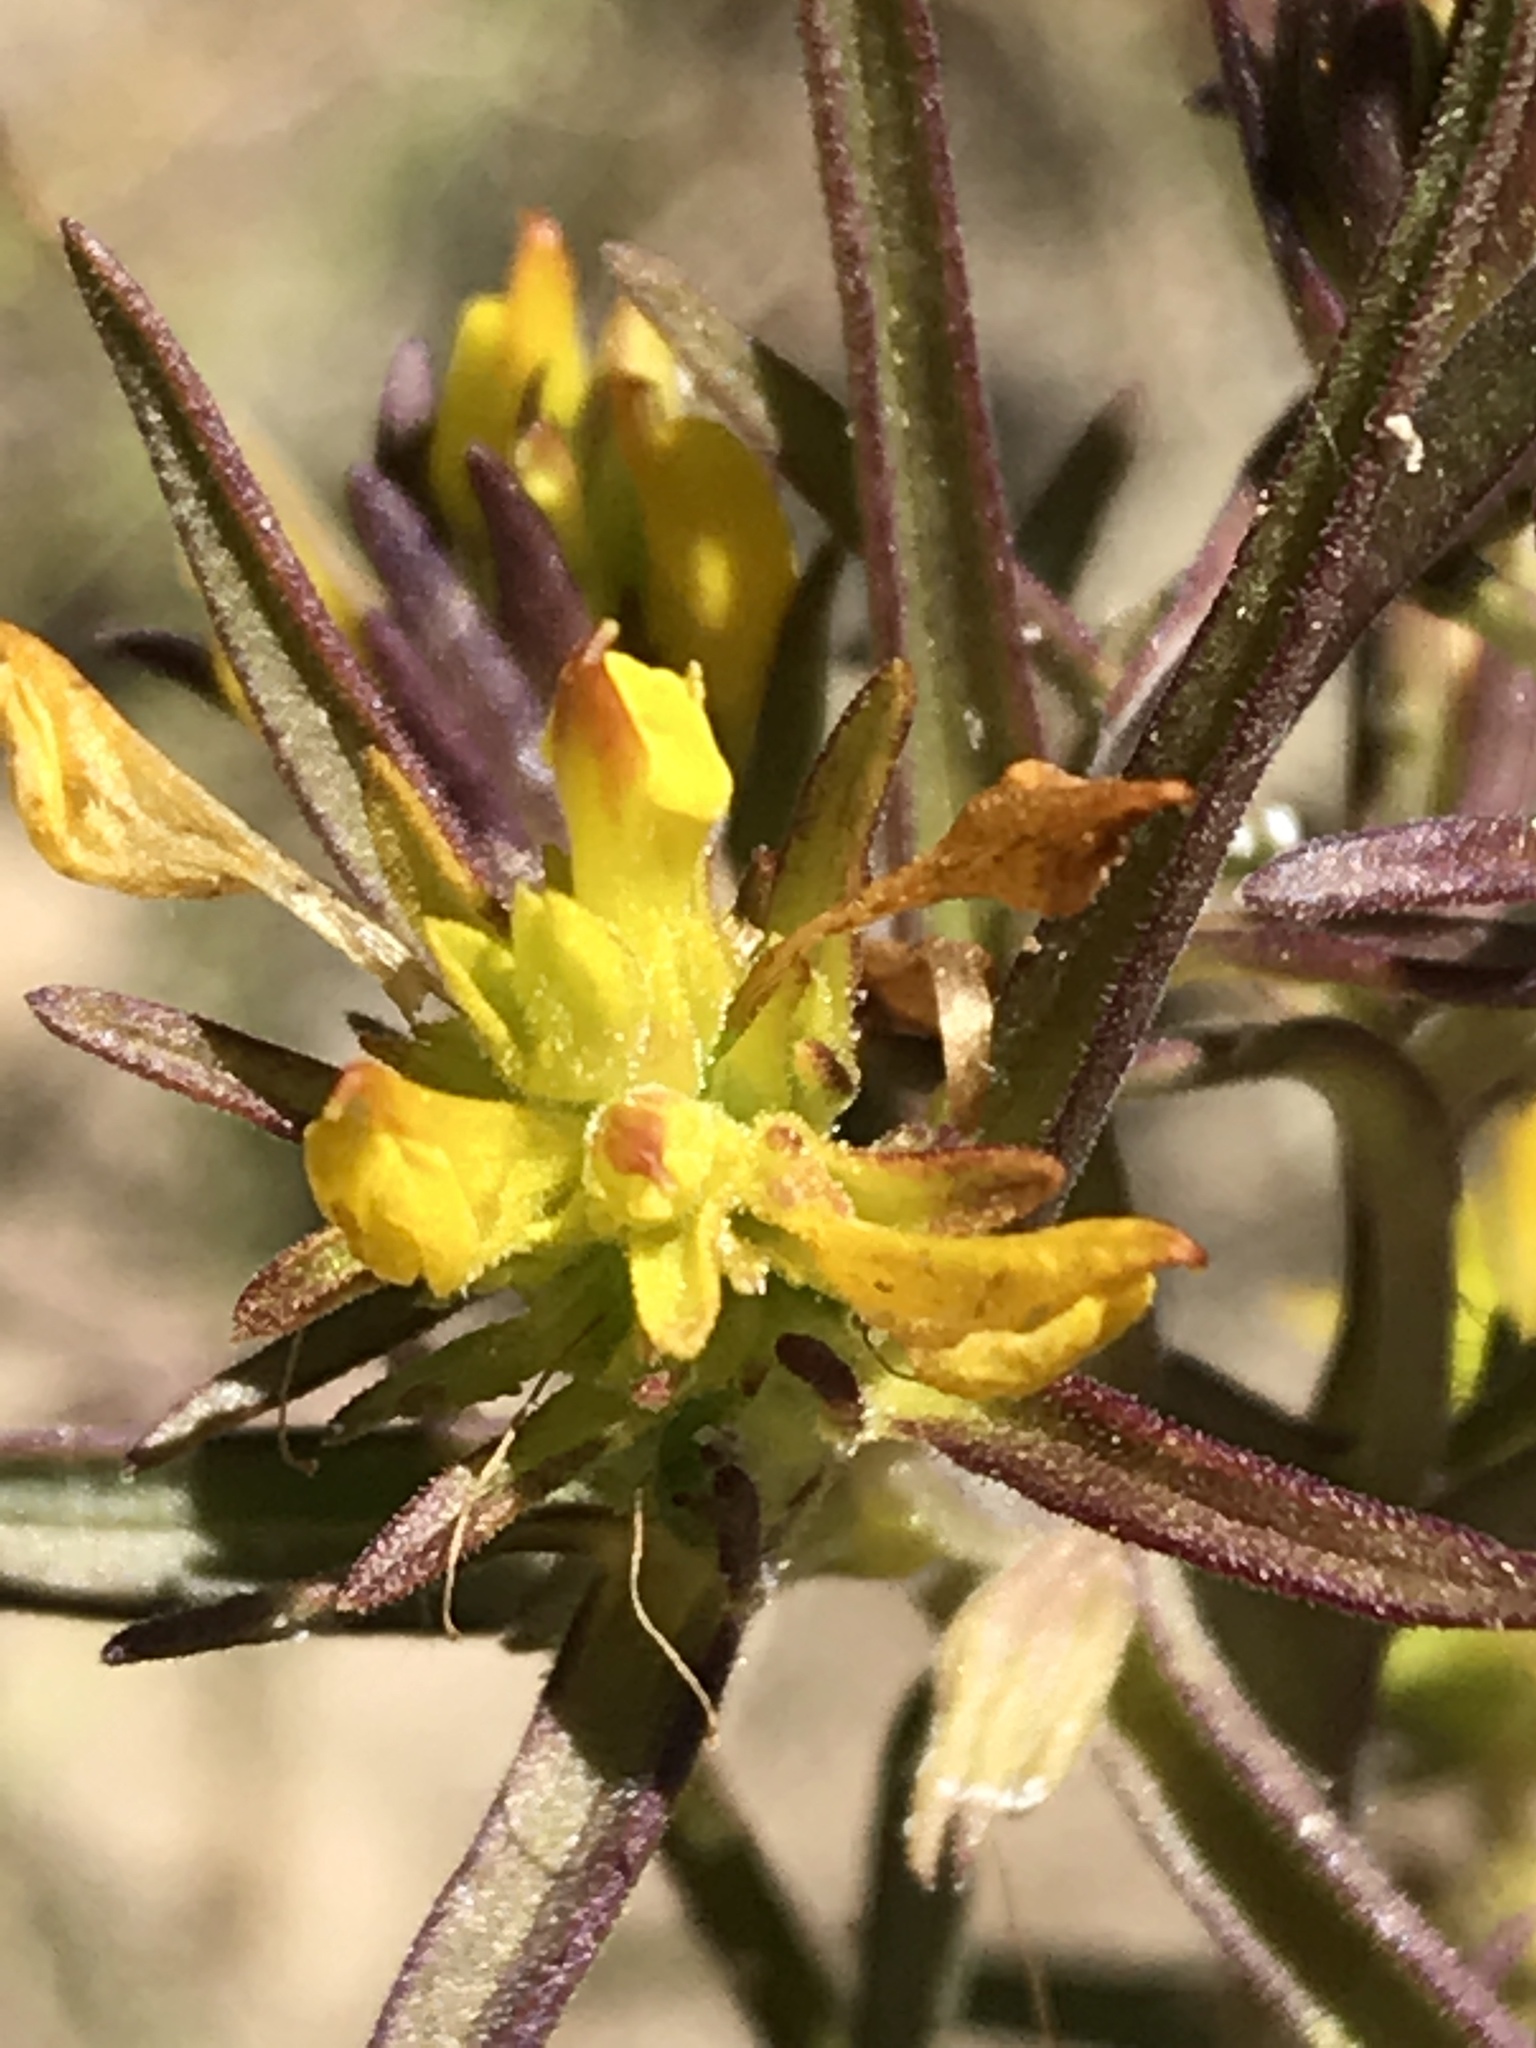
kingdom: Plantae
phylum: Tracheophyta
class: Magnoliopsida
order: Lamiales
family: Orobanchaceae
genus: Orthocarpus
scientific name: Orthocarpus tolmiei
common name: Tolmie's owl-clover
